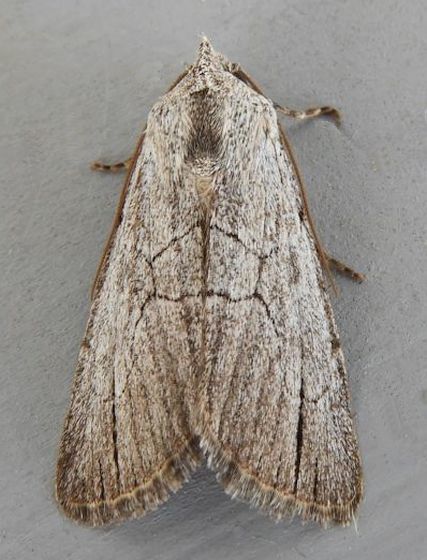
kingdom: Animalia
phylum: Arthropoda
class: Insecta
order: Lepidoptera
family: Noctuidae
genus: Sympistis
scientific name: Sympistis semicollaris
